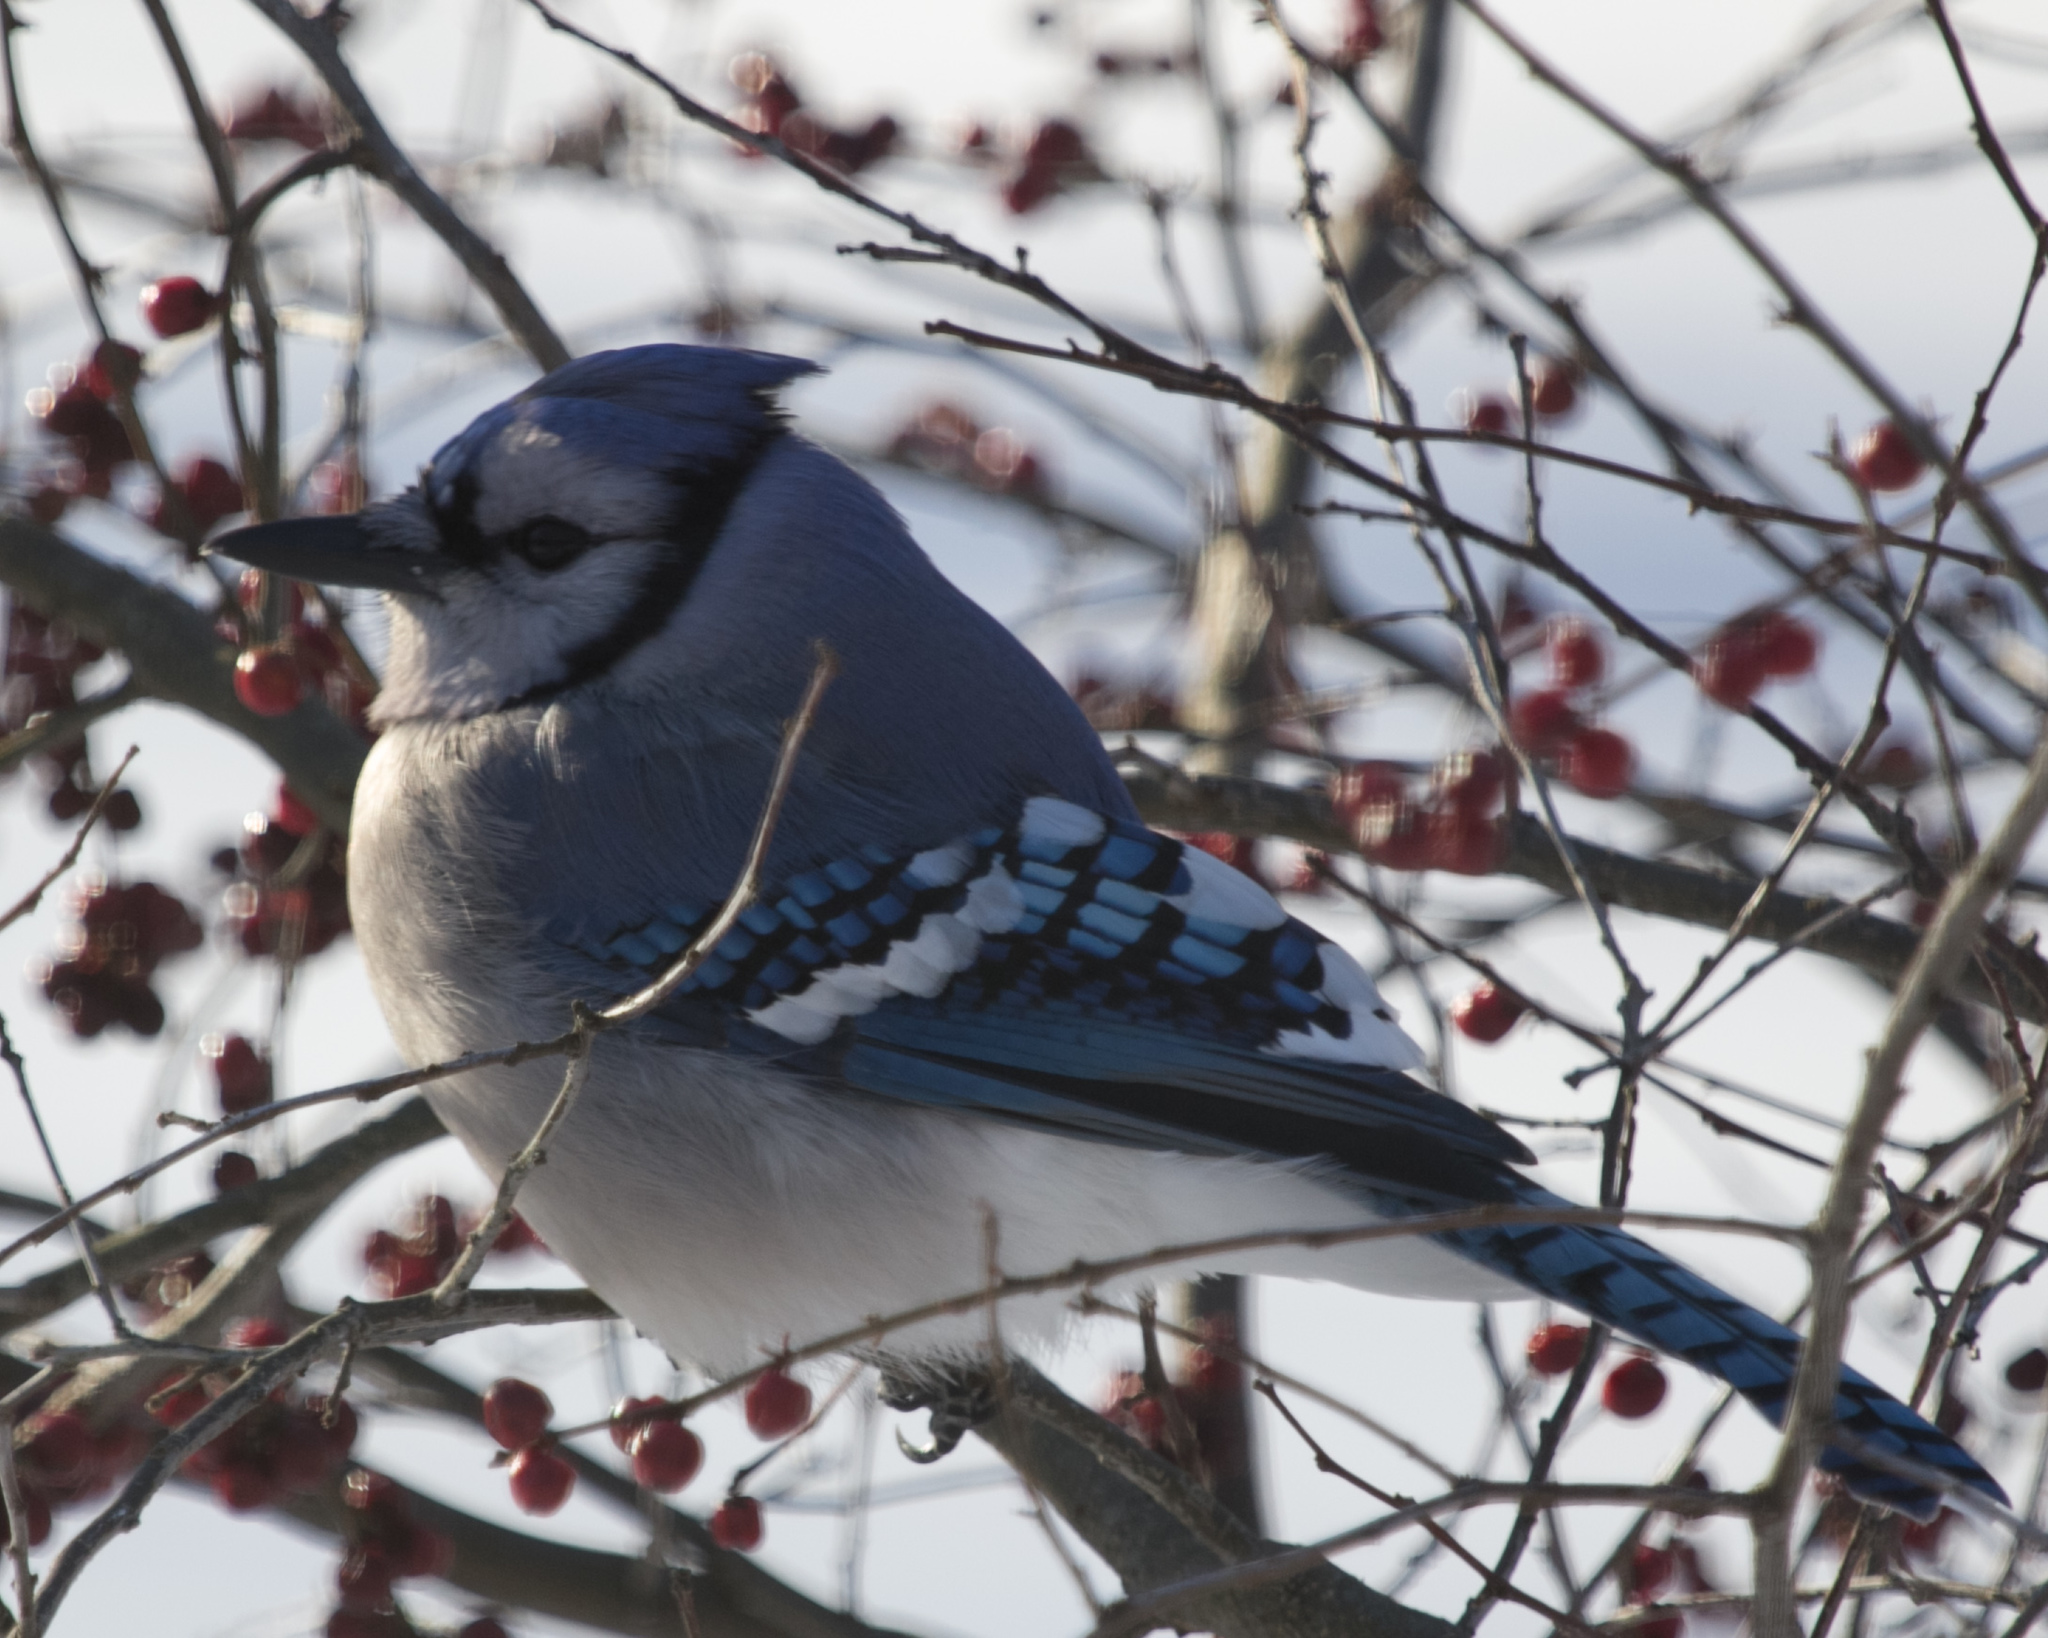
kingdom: Animalia
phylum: Chordata
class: Aves
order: Passeriformes
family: Corvidae
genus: Cyanocitta
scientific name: Cyanocitta cristata
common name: Blue jay
